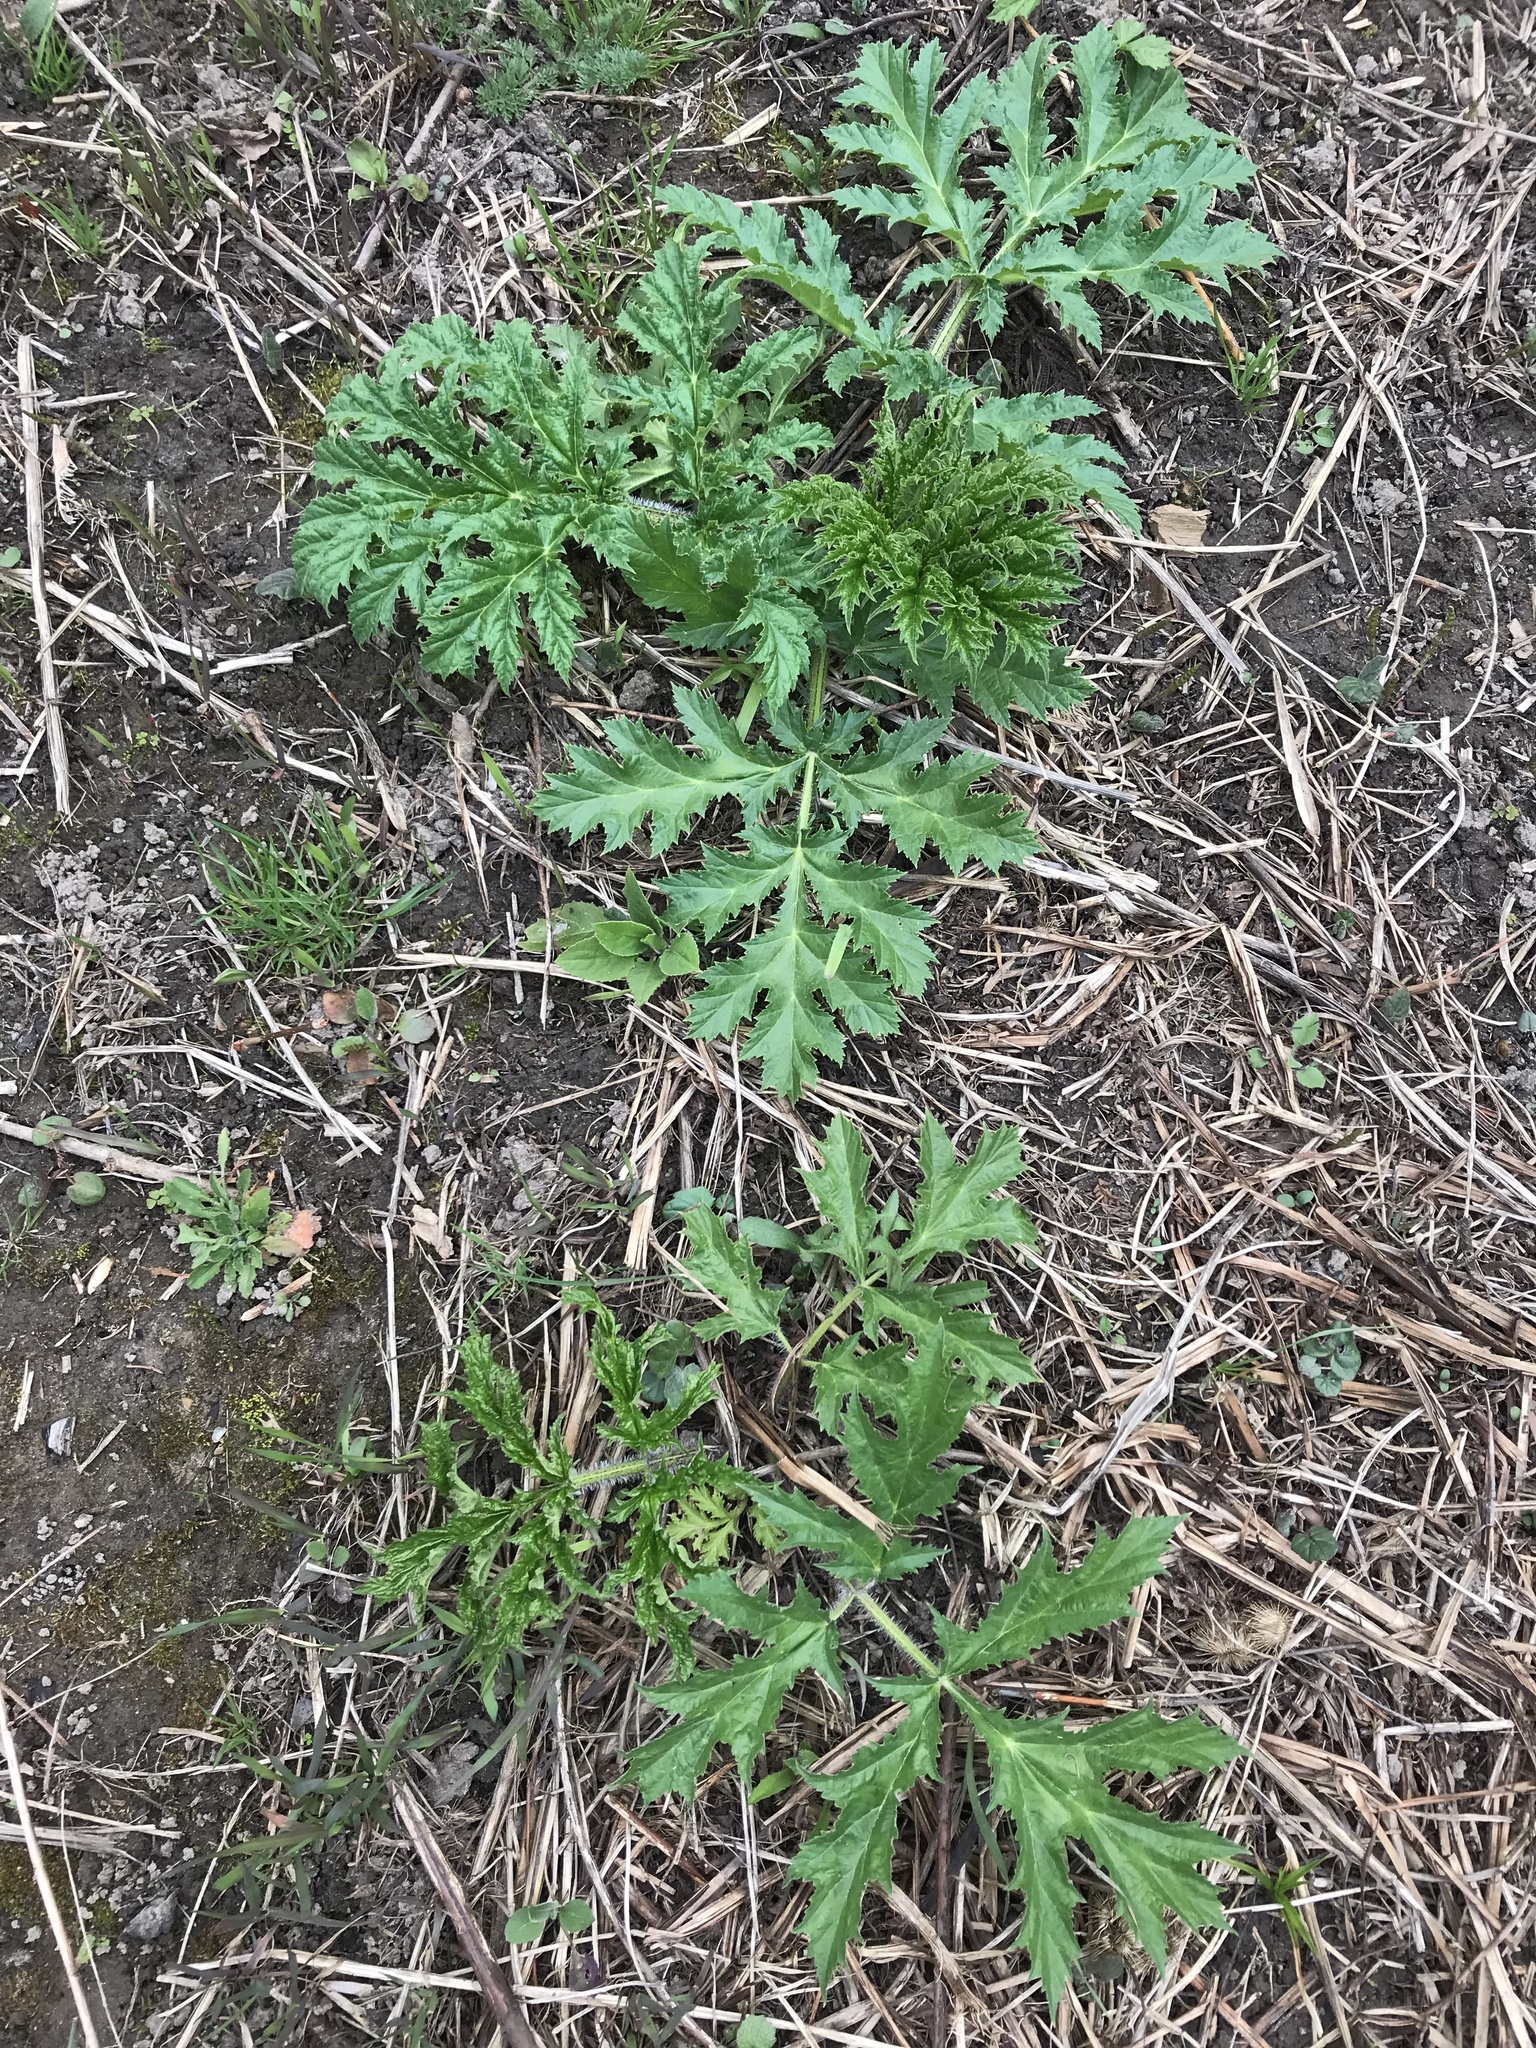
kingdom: Plantae
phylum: Tracheophyta
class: Magnoliopsida
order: Apiales
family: Apiaceae
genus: Heracleum
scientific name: Heracleum mantegazzianum
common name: Giant hogweed
